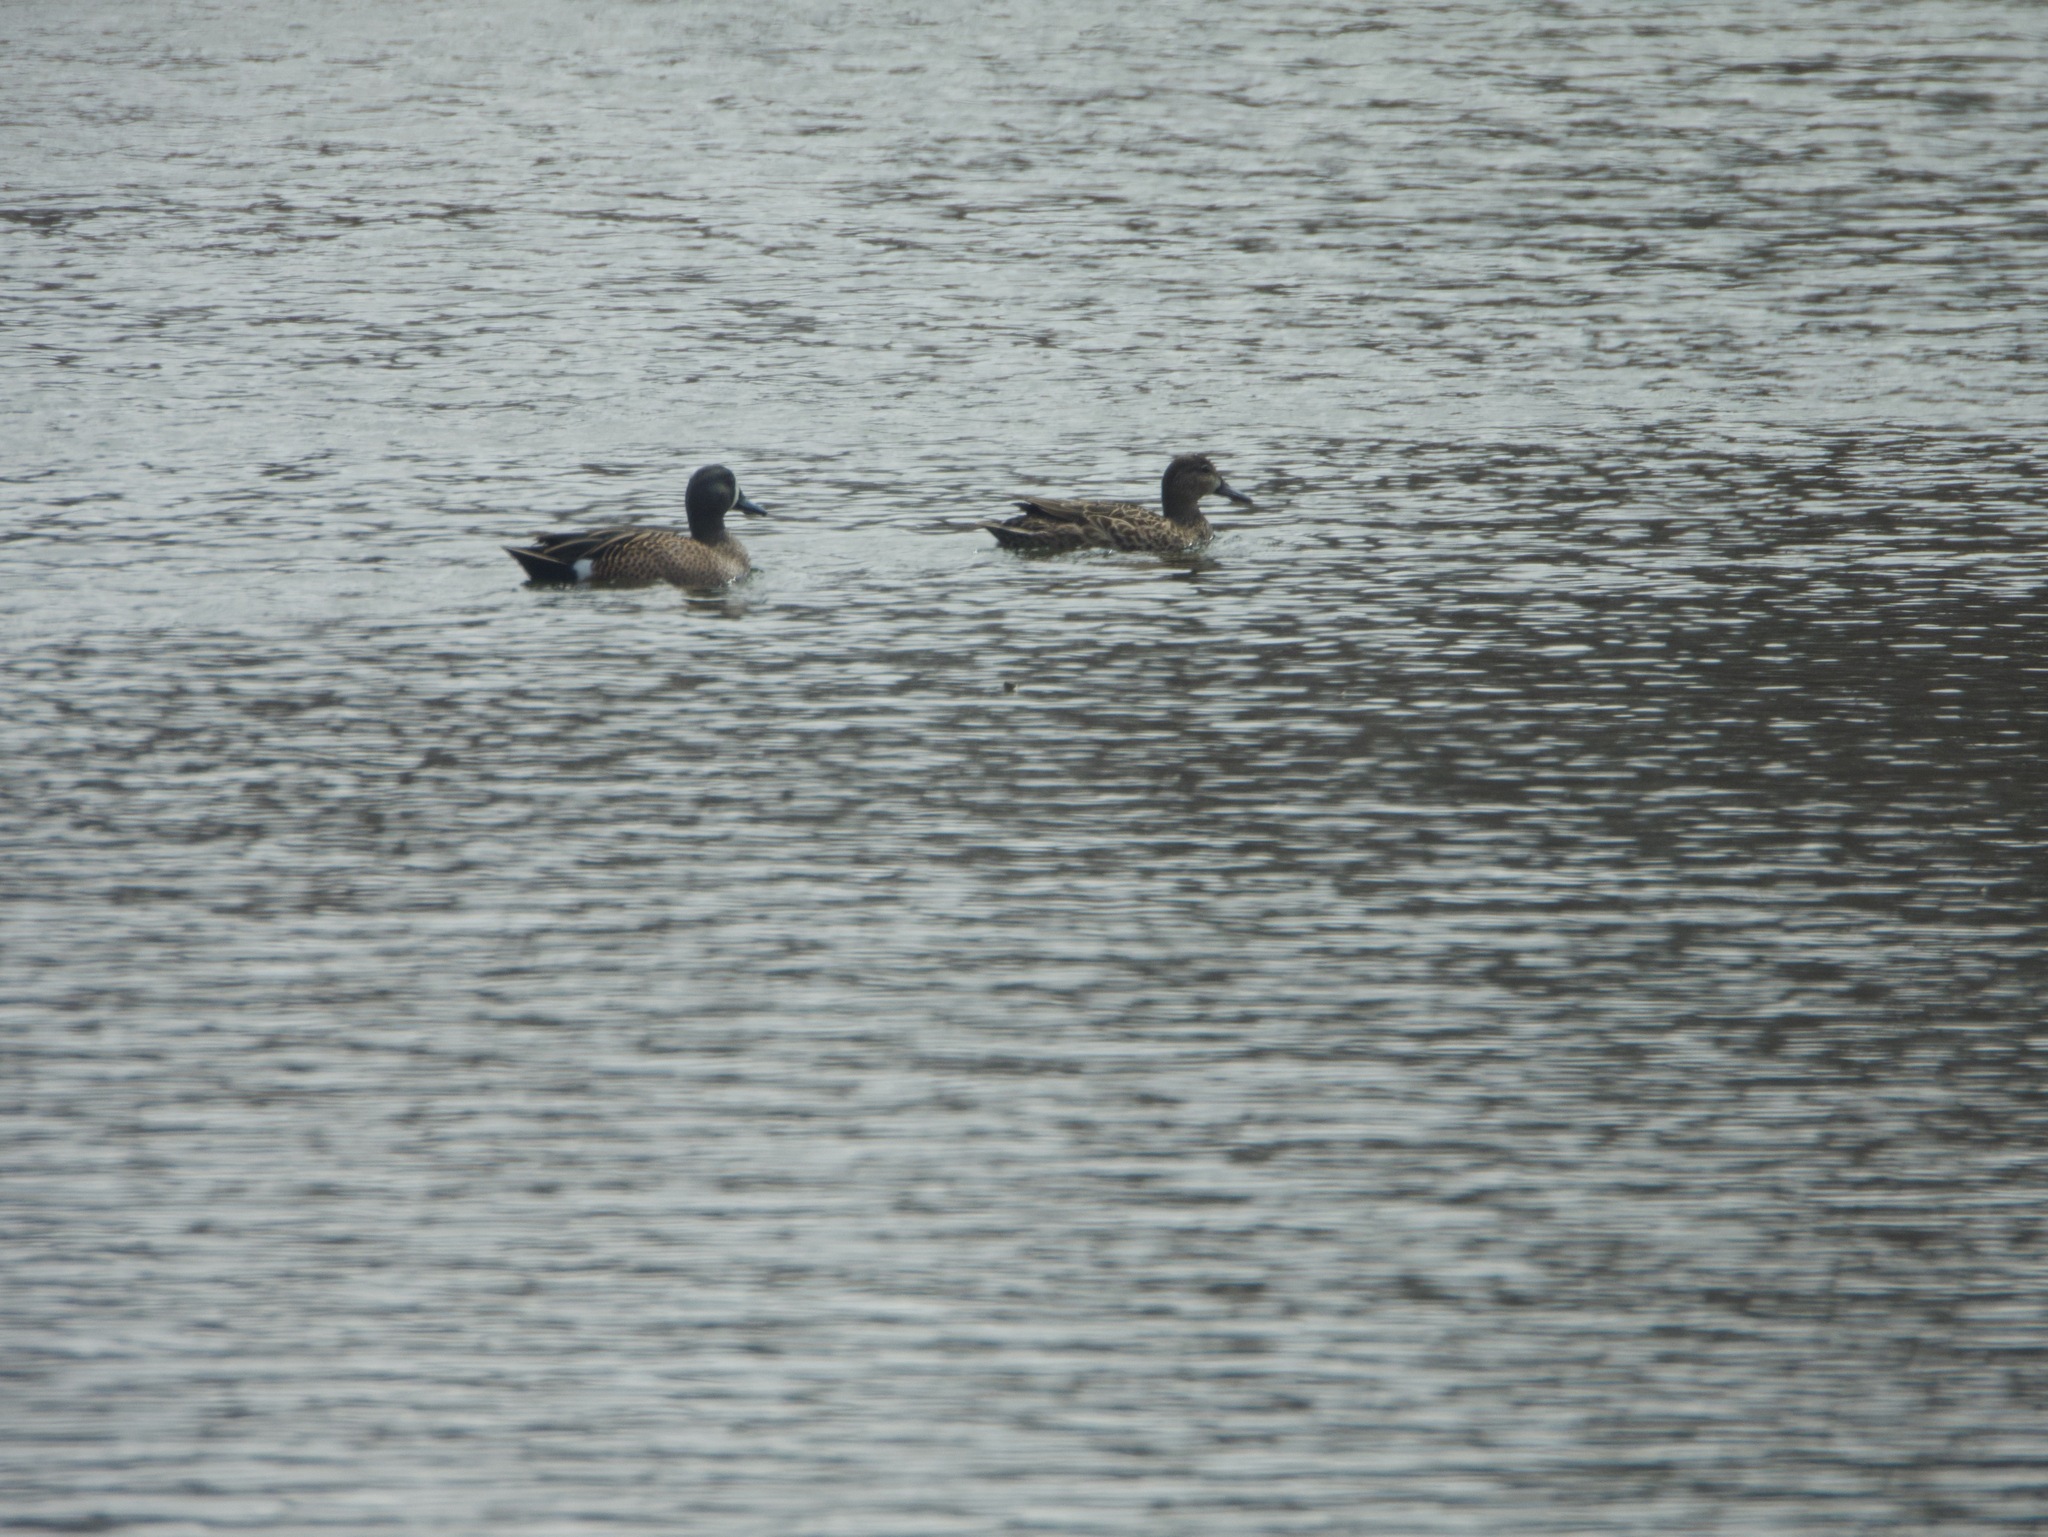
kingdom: Animalia
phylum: Chordata
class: Aves
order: Anseriformes
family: Anatidae
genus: Spatula
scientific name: Spatula discors
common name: Blue-winged teal
